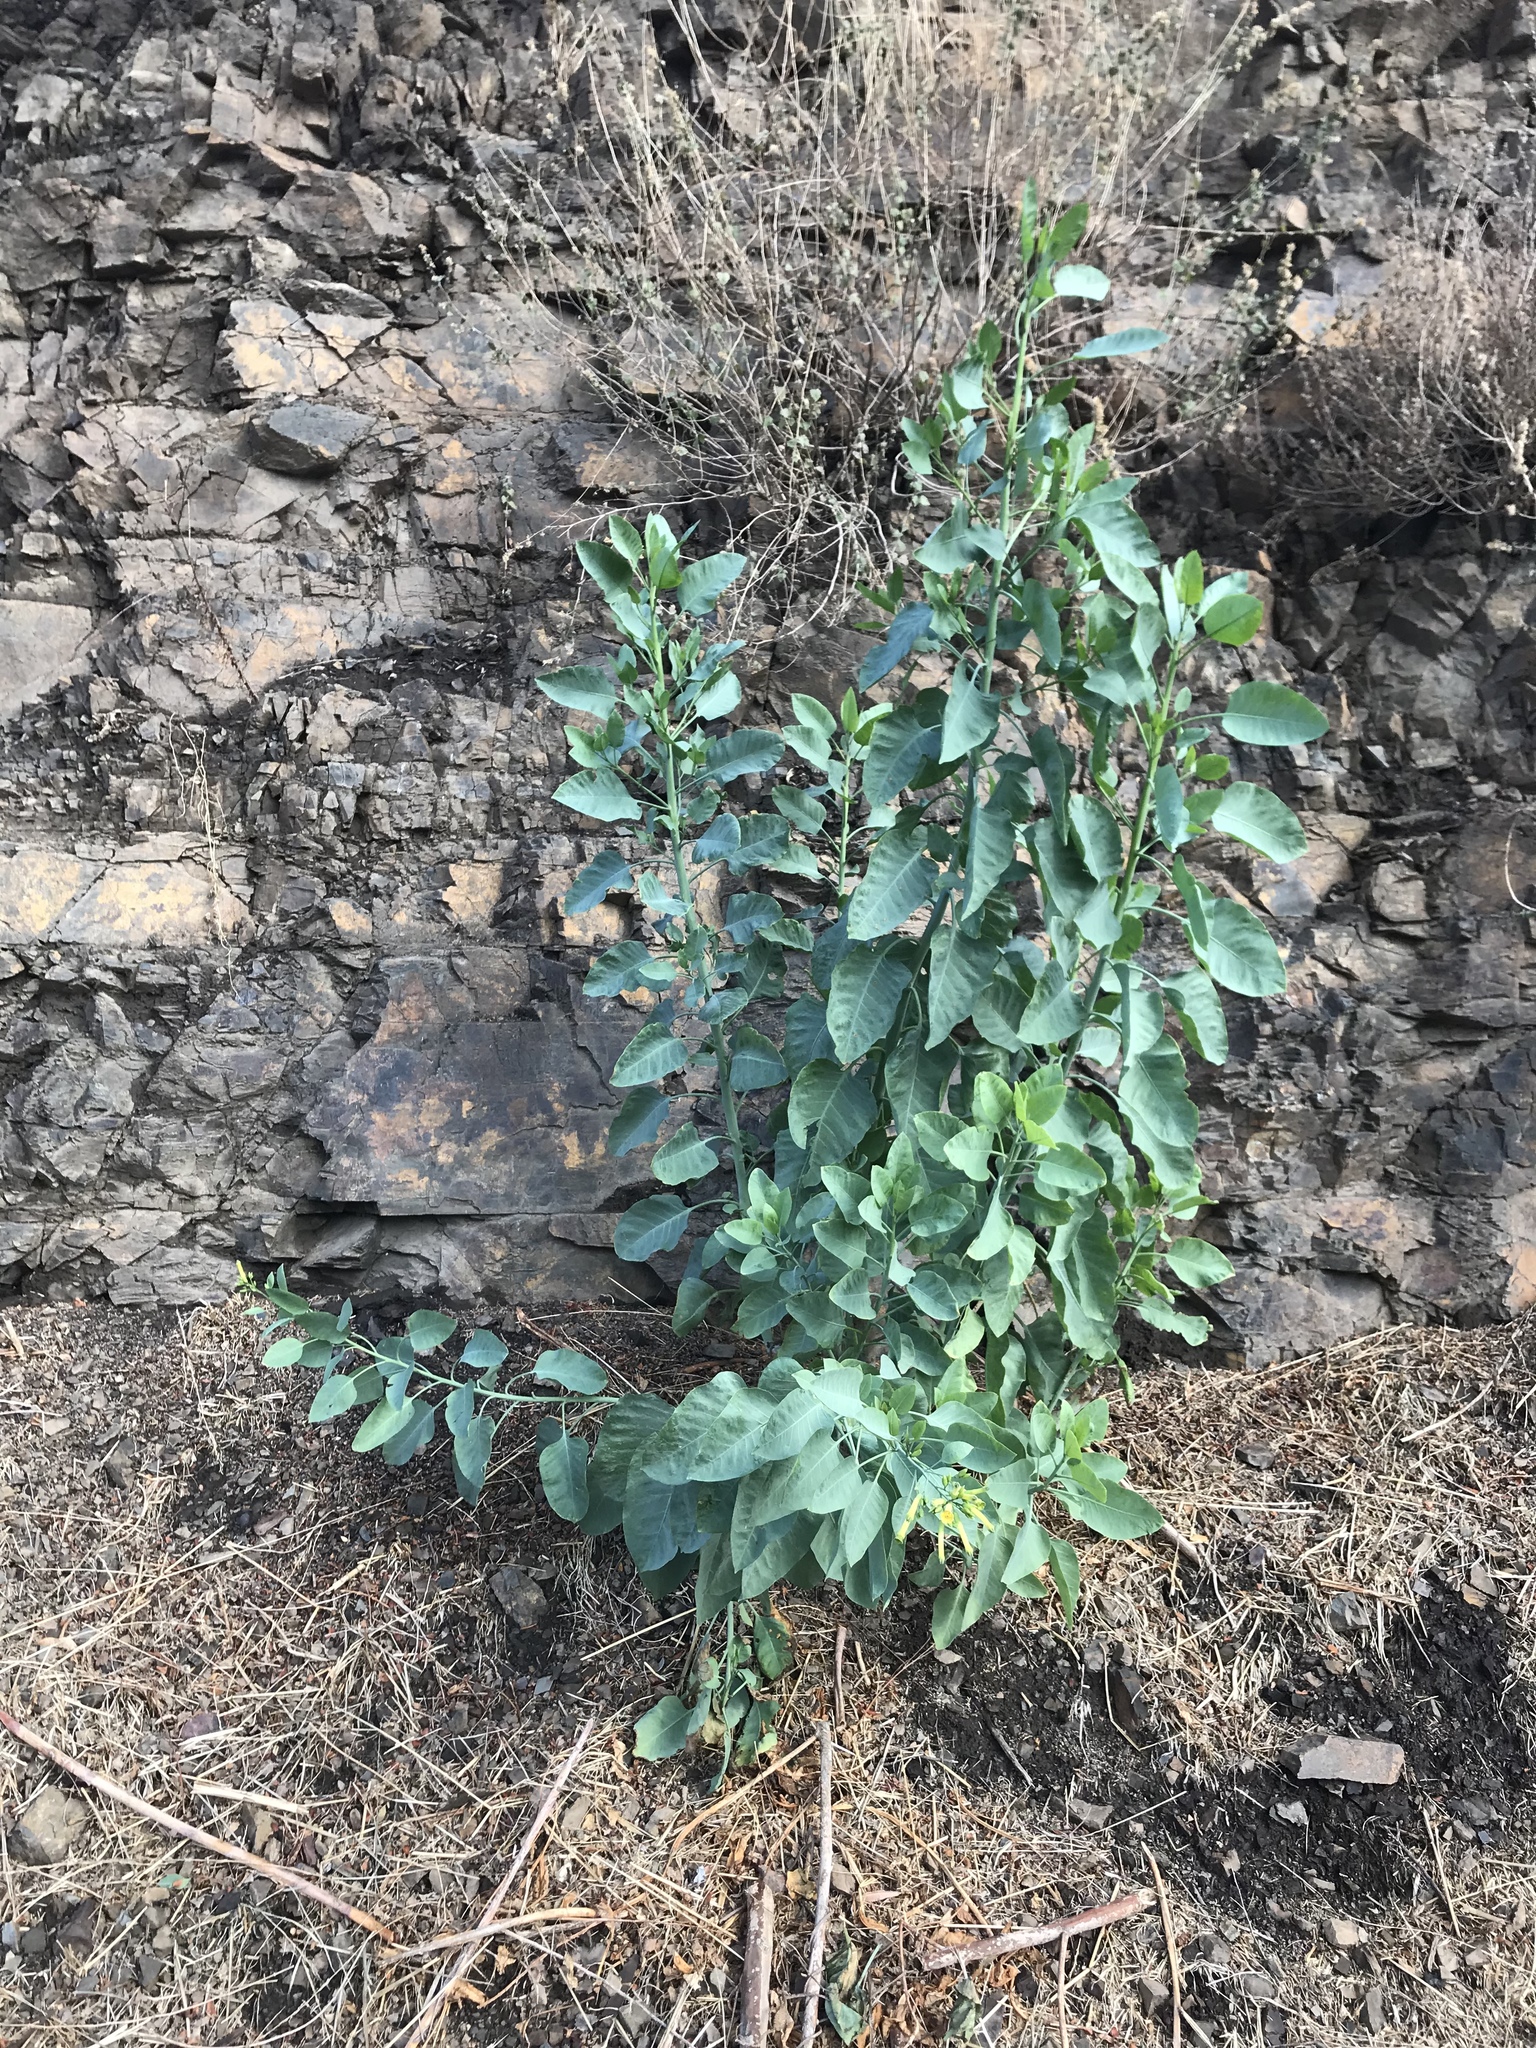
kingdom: Plantae
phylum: Tracheophyta
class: Magnoliopsida
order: Solanales
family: Solanaceae
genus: Nicotiana
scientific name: Nicotiana glauca
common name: Tree tobacco
